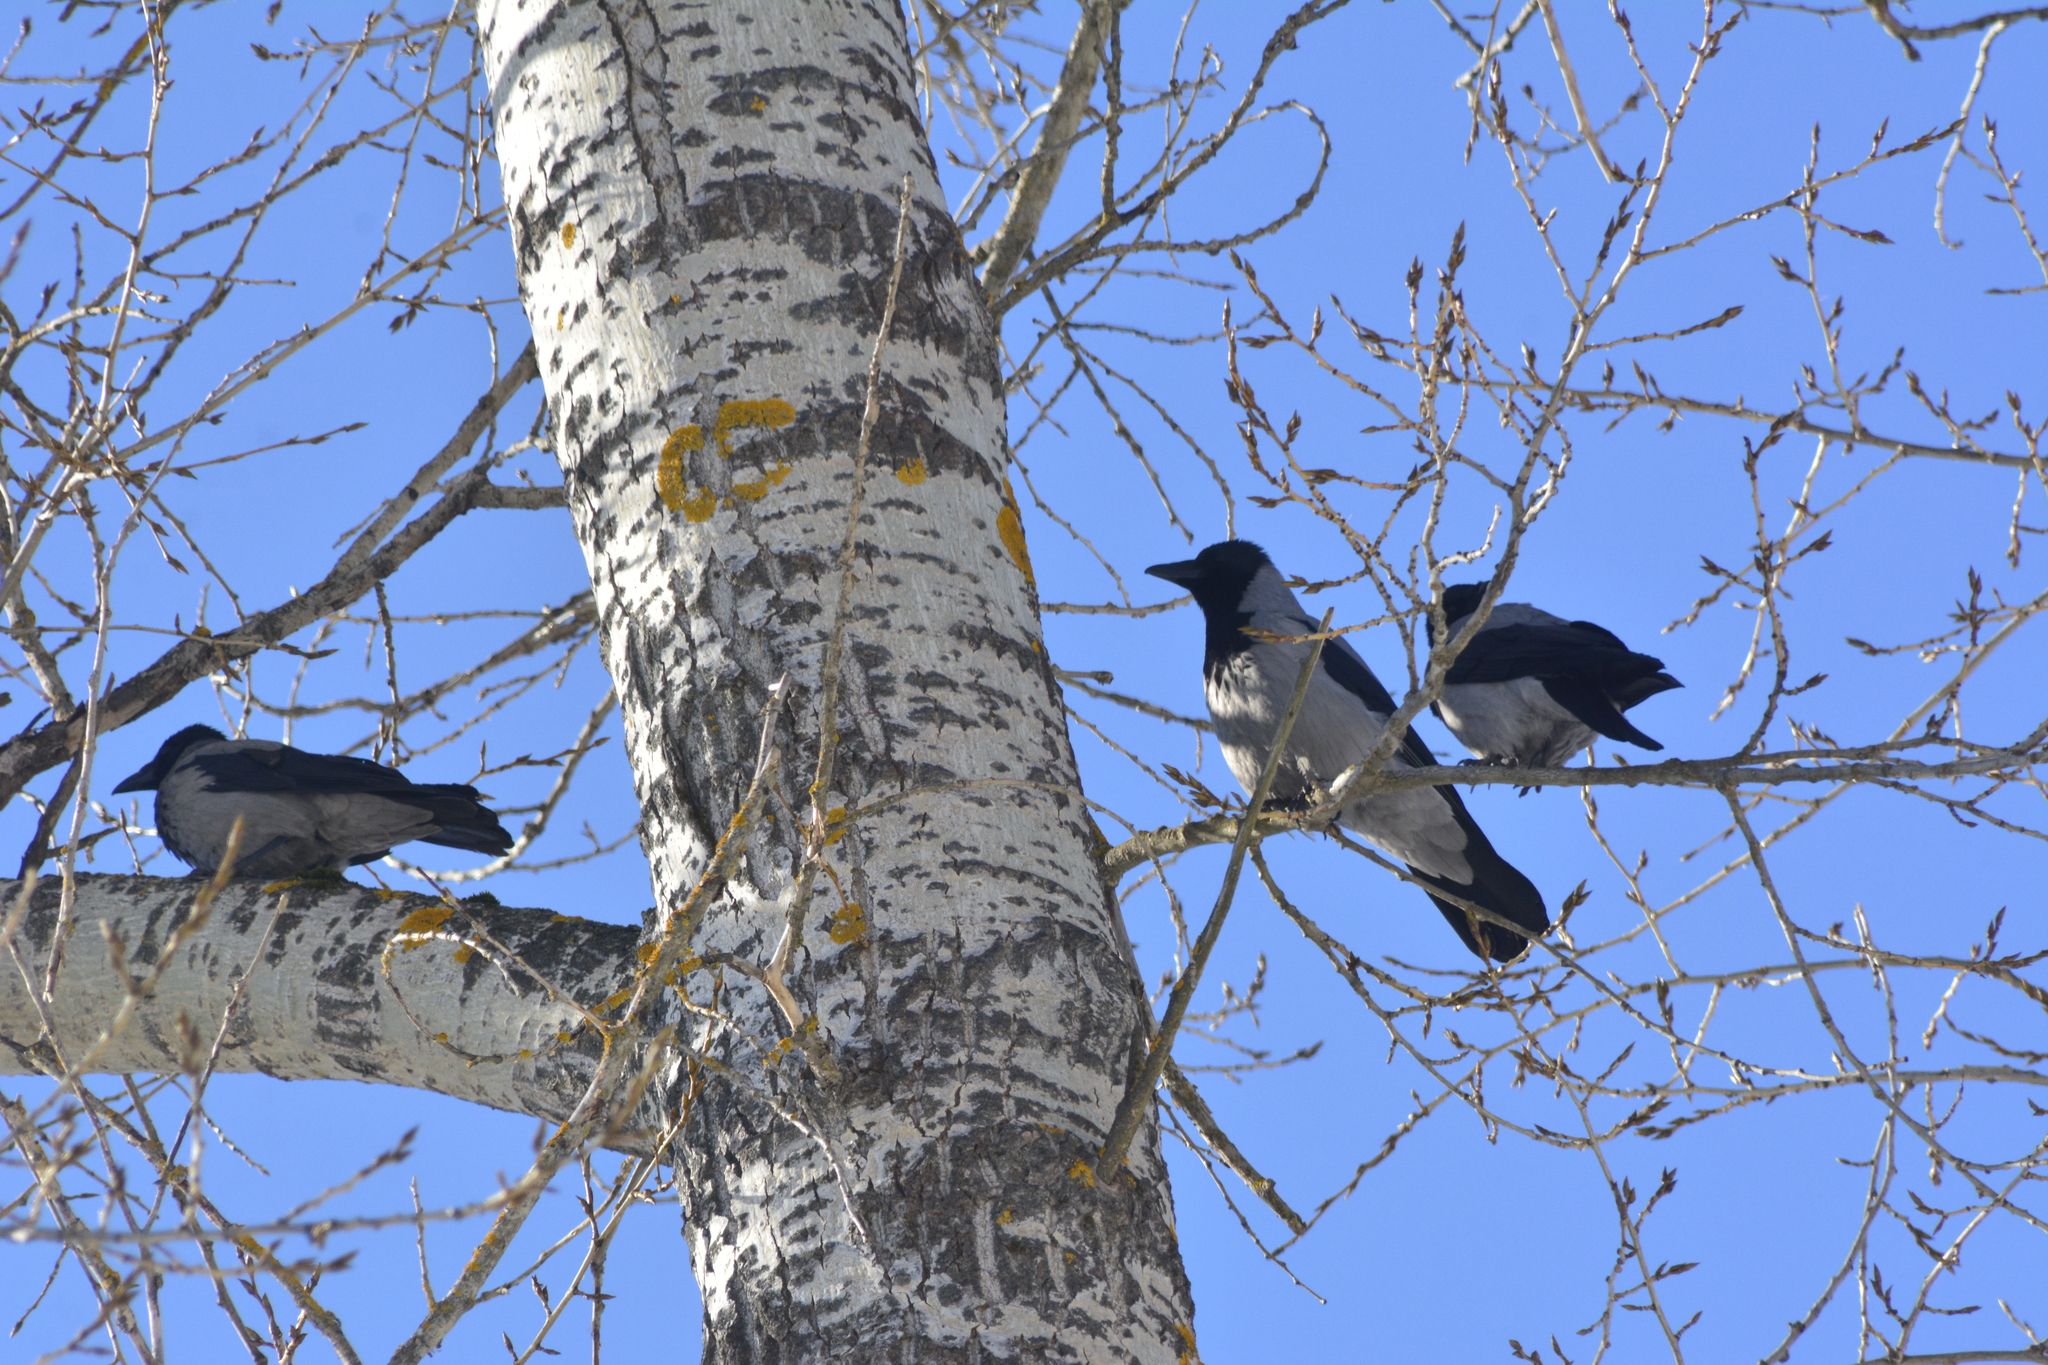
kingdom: Animalia
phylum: Chordata
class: Aves
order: Passeriformes
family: Corvidae
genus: Corvus
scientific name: Corvus cornix
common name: Hooded crow
